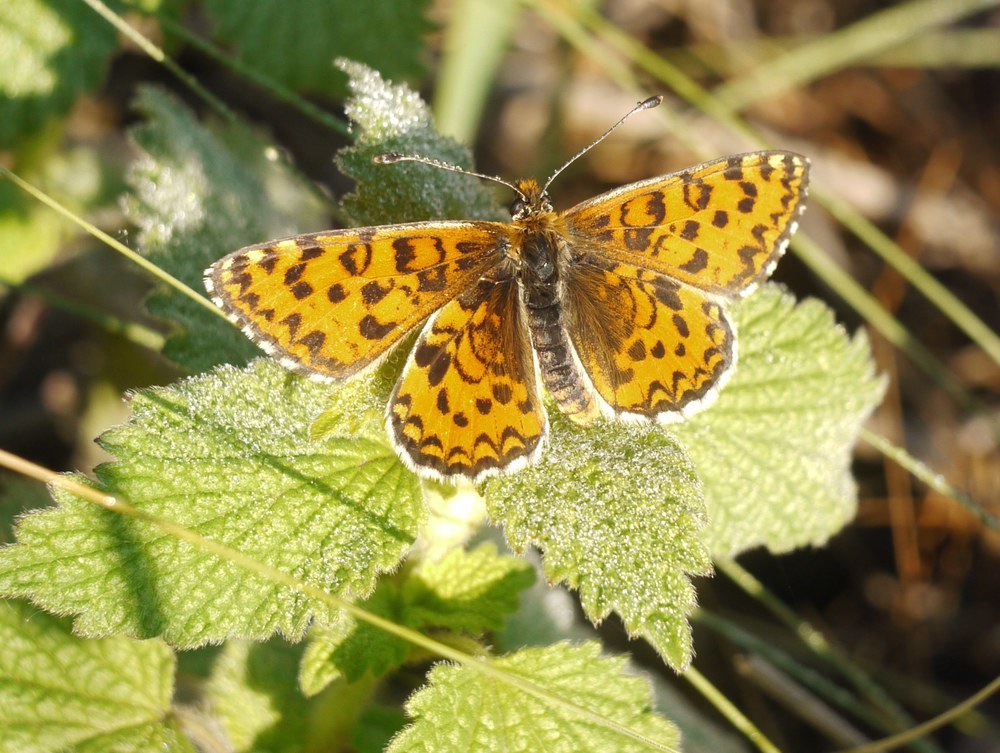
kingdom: Animalia
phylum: Arthropoda
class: Insecta
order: Lepidoptera
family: Nymphalidae
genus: Melitaea
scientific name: Melitaea trivia
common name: Lesser spotted fritillary
